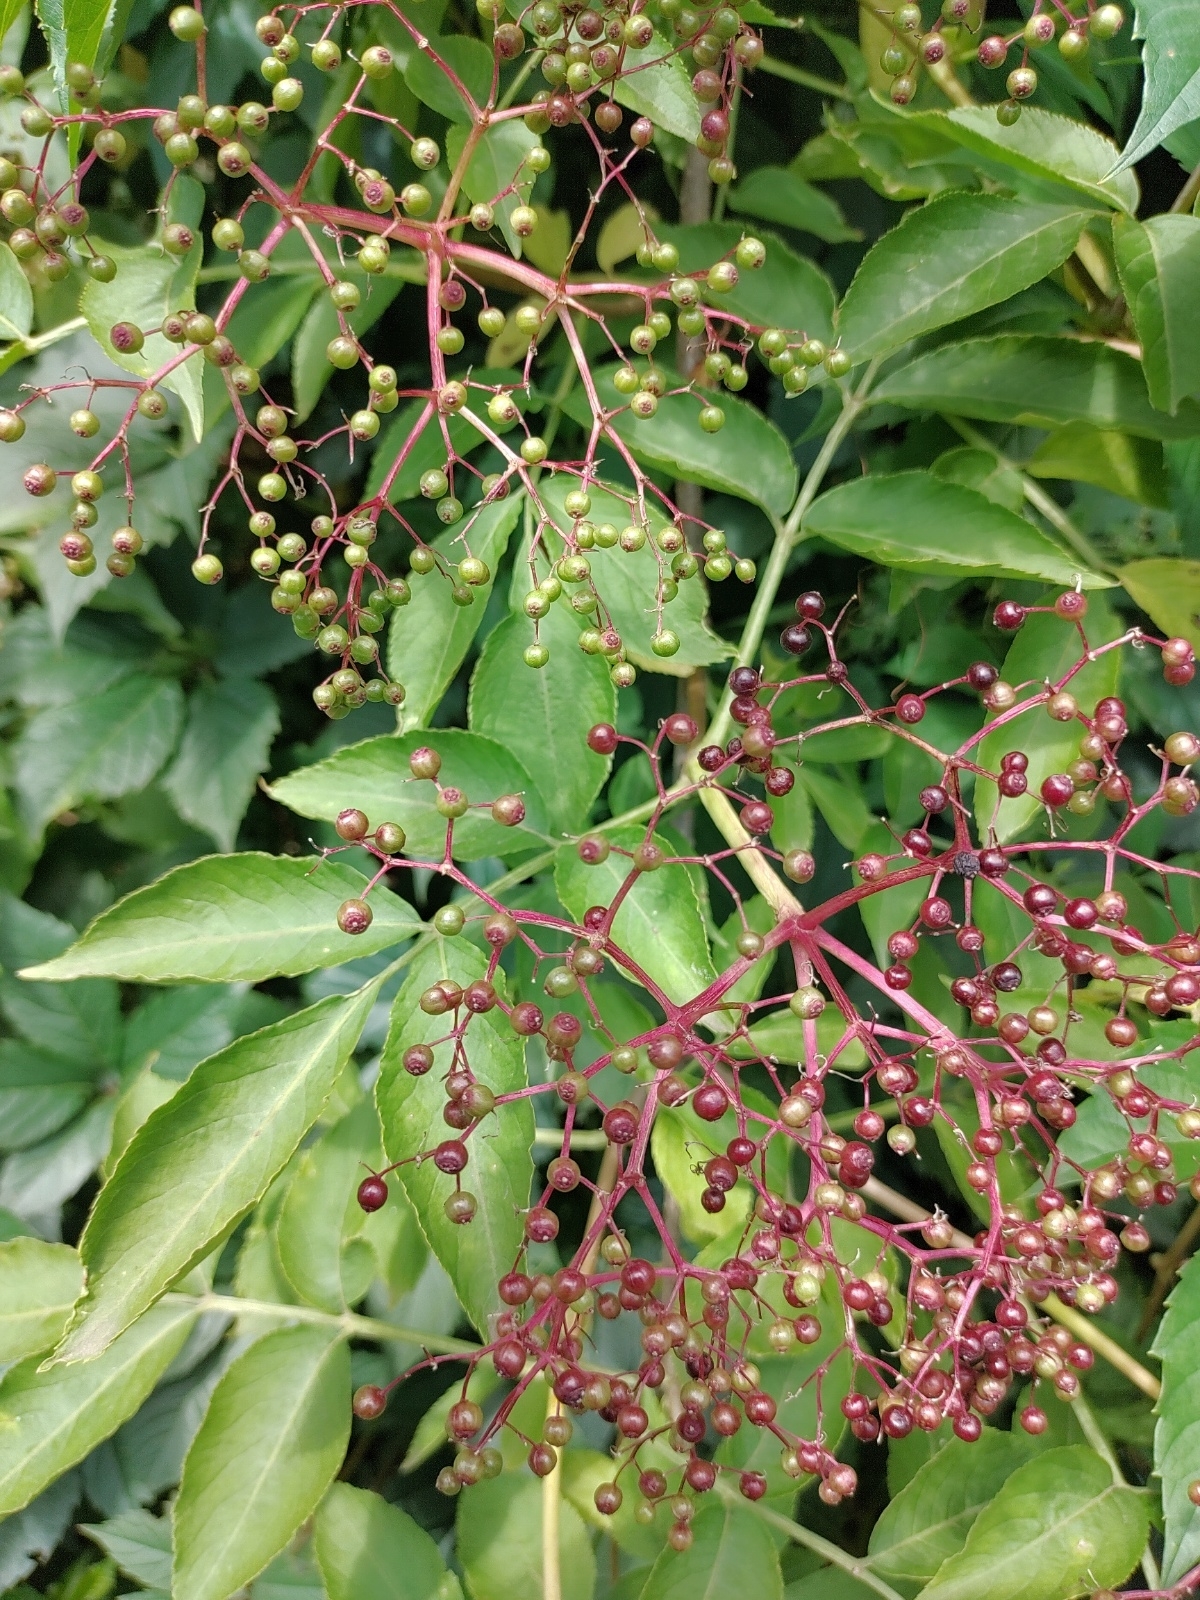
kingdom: Plantae
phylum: Tracheophyta
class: Magnoliopsida
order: Dipsacales
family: Viburnaceae
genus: Sambucus
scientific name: Sambucus nigra
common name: Elder
